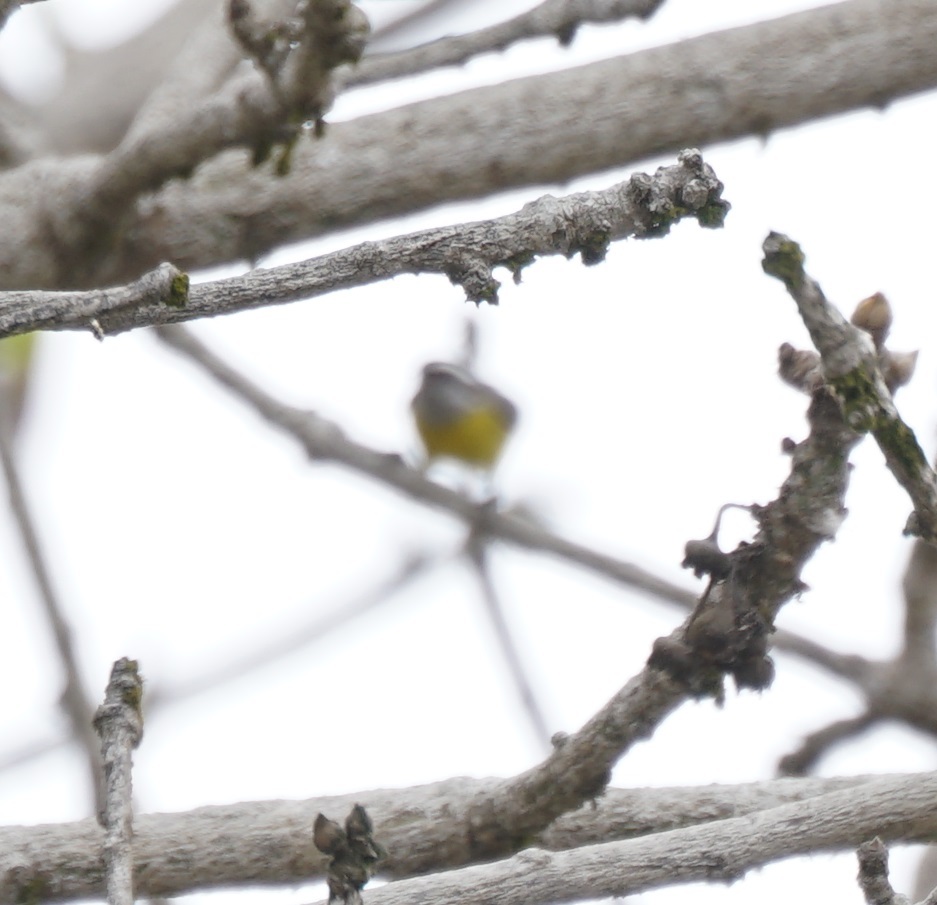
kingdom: Animalia
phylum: Chordata
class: Aves
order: Passeriformes
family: Thraupidae
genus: Coereba
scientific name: Coereba flaveola
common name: Bananaquit
